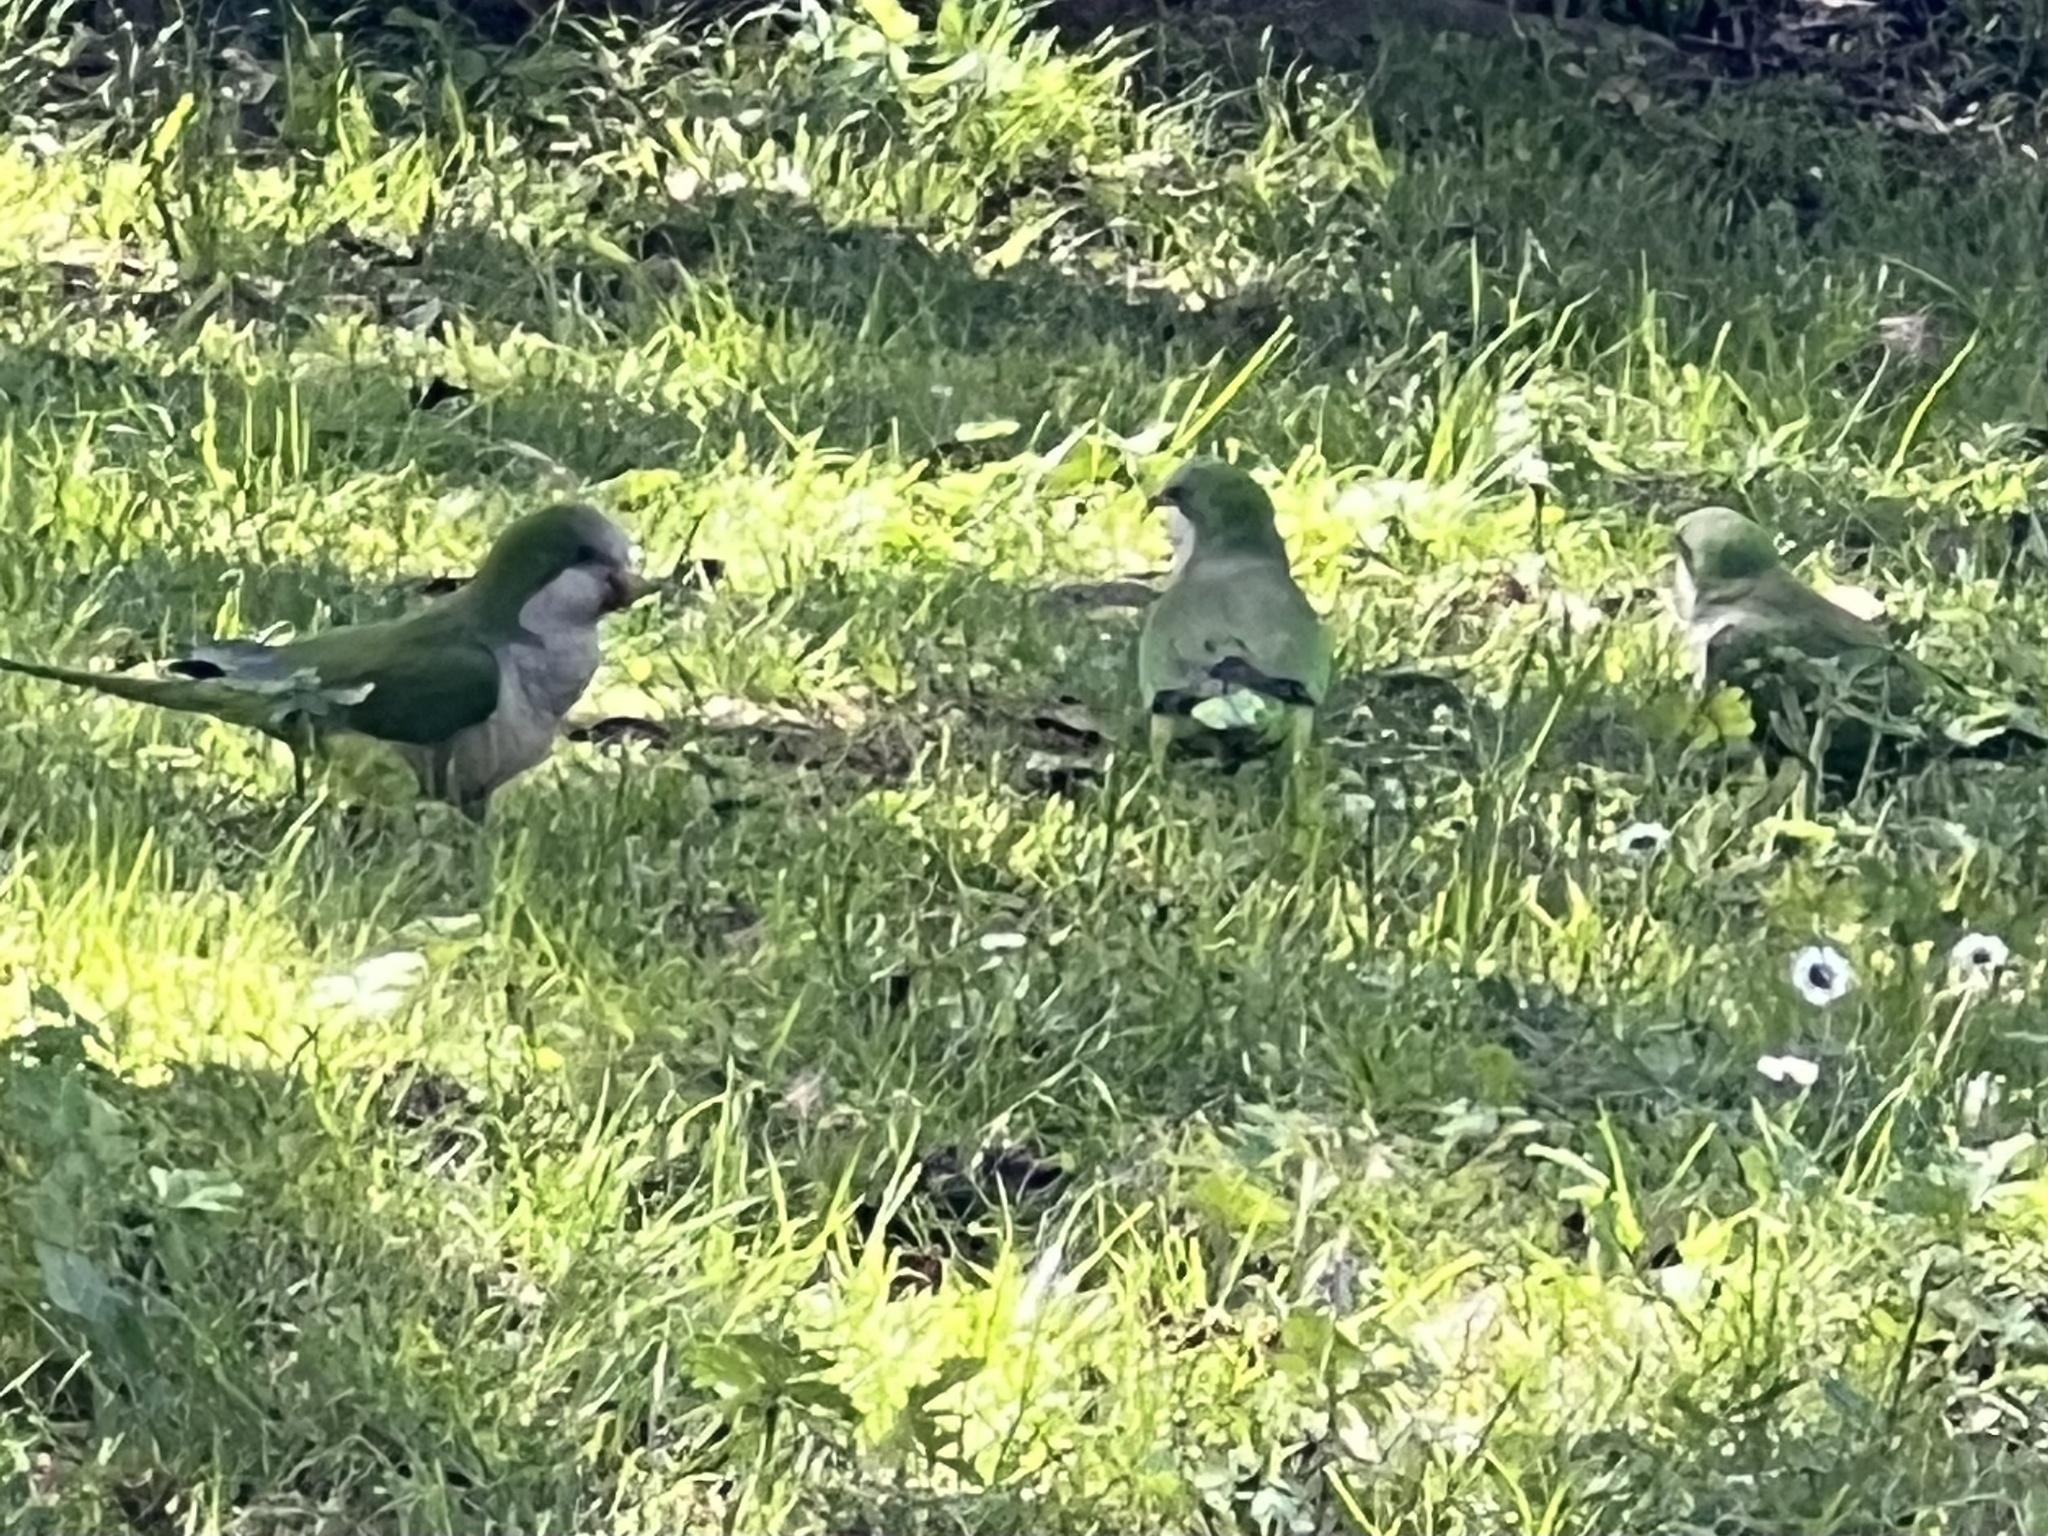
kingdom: Animalia
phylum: Chordata
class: Aves
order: Psittaciformes
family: Psittacidae
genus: Myiopsitta
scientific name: Myiopsitta monachus
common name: Monk parakeet
